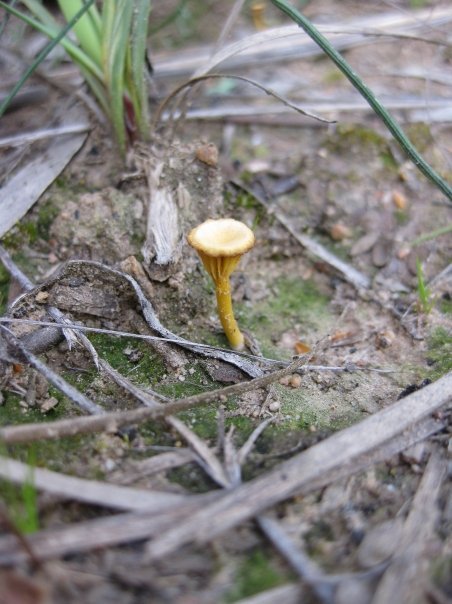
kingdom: Fungi
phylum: Basidiomycota
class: Agaricomycetes
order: Agaricales
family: Hygrophoraceae
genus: Lichenomphalia
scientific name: Lichenomphalia chromacea
